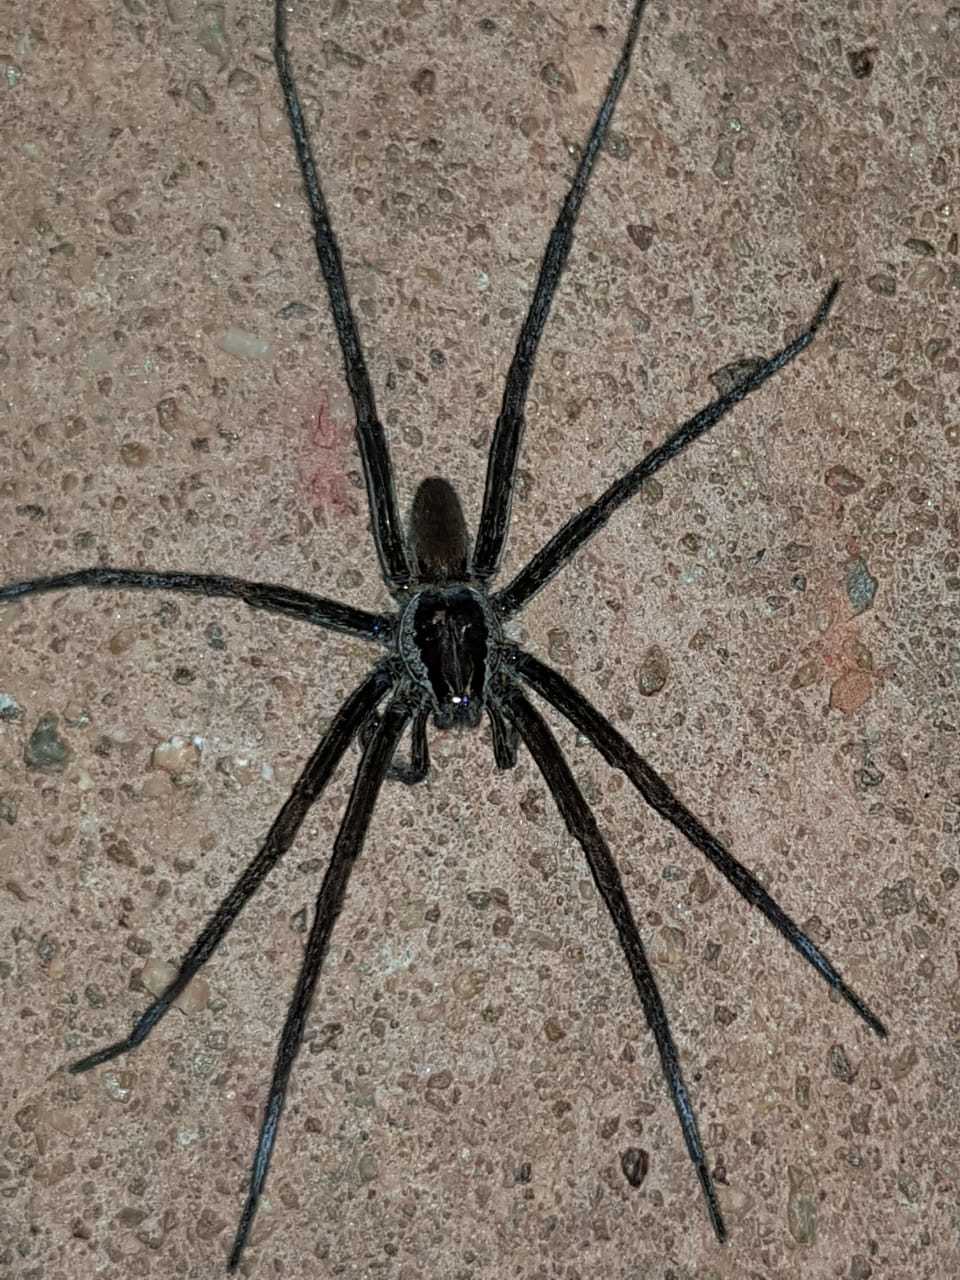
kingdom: Animalia
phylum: Arthropoda
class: Arachnida
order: Araneae
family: Ctenidae
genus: Ancylometes
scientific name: Ancylometes
